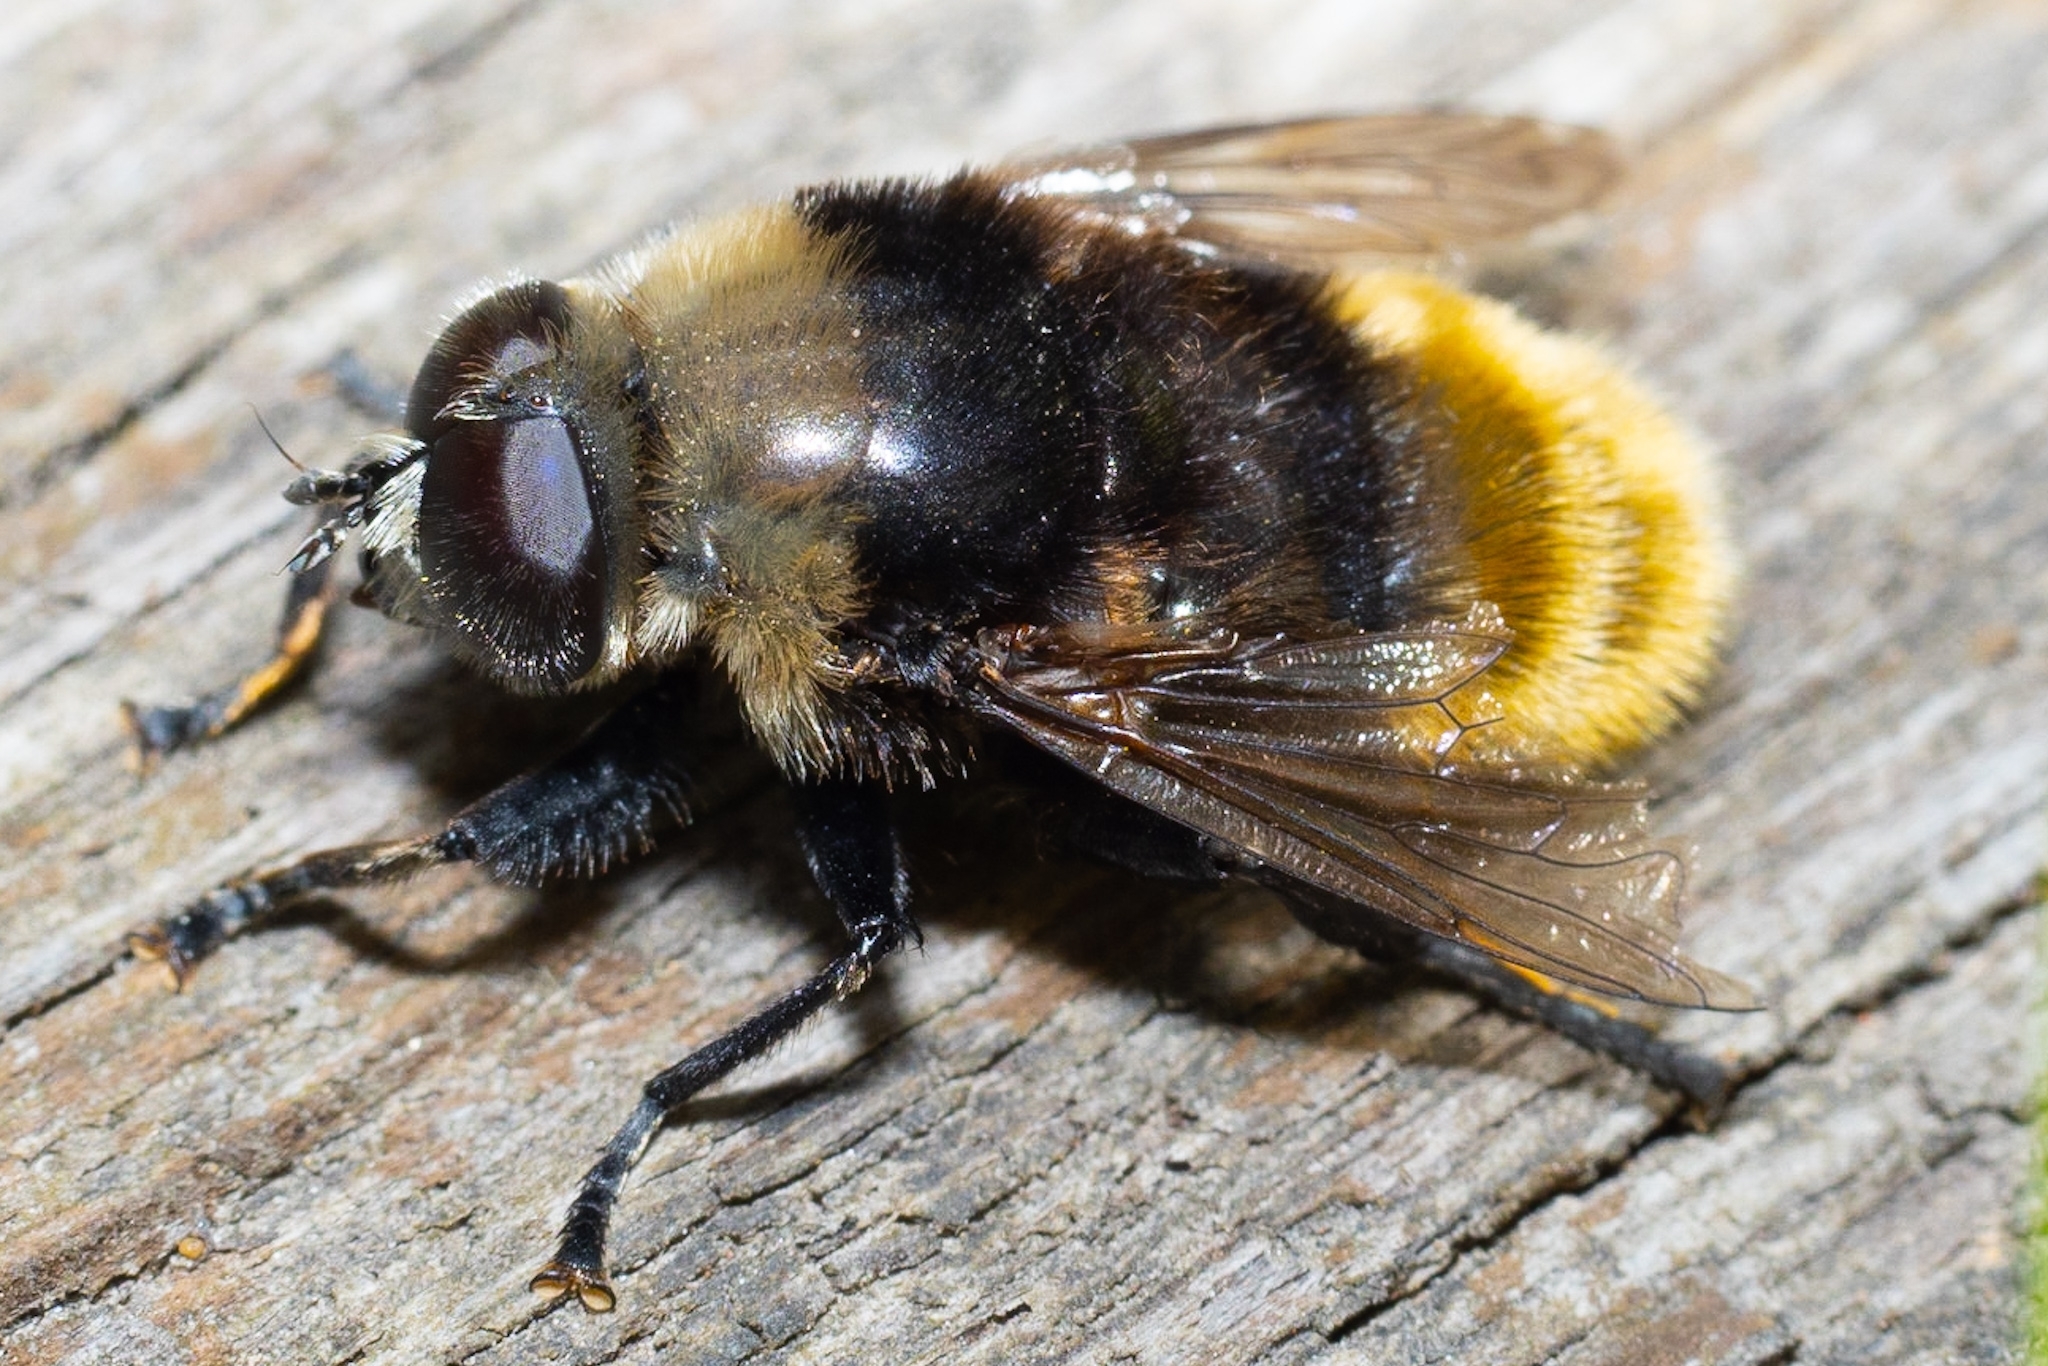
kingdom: Animalia
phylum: Arthropoda
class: Insecta
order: Diptera
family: Syrphidae
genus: Merodon
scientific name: Merodon equestris
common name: Greater bulb-fly
